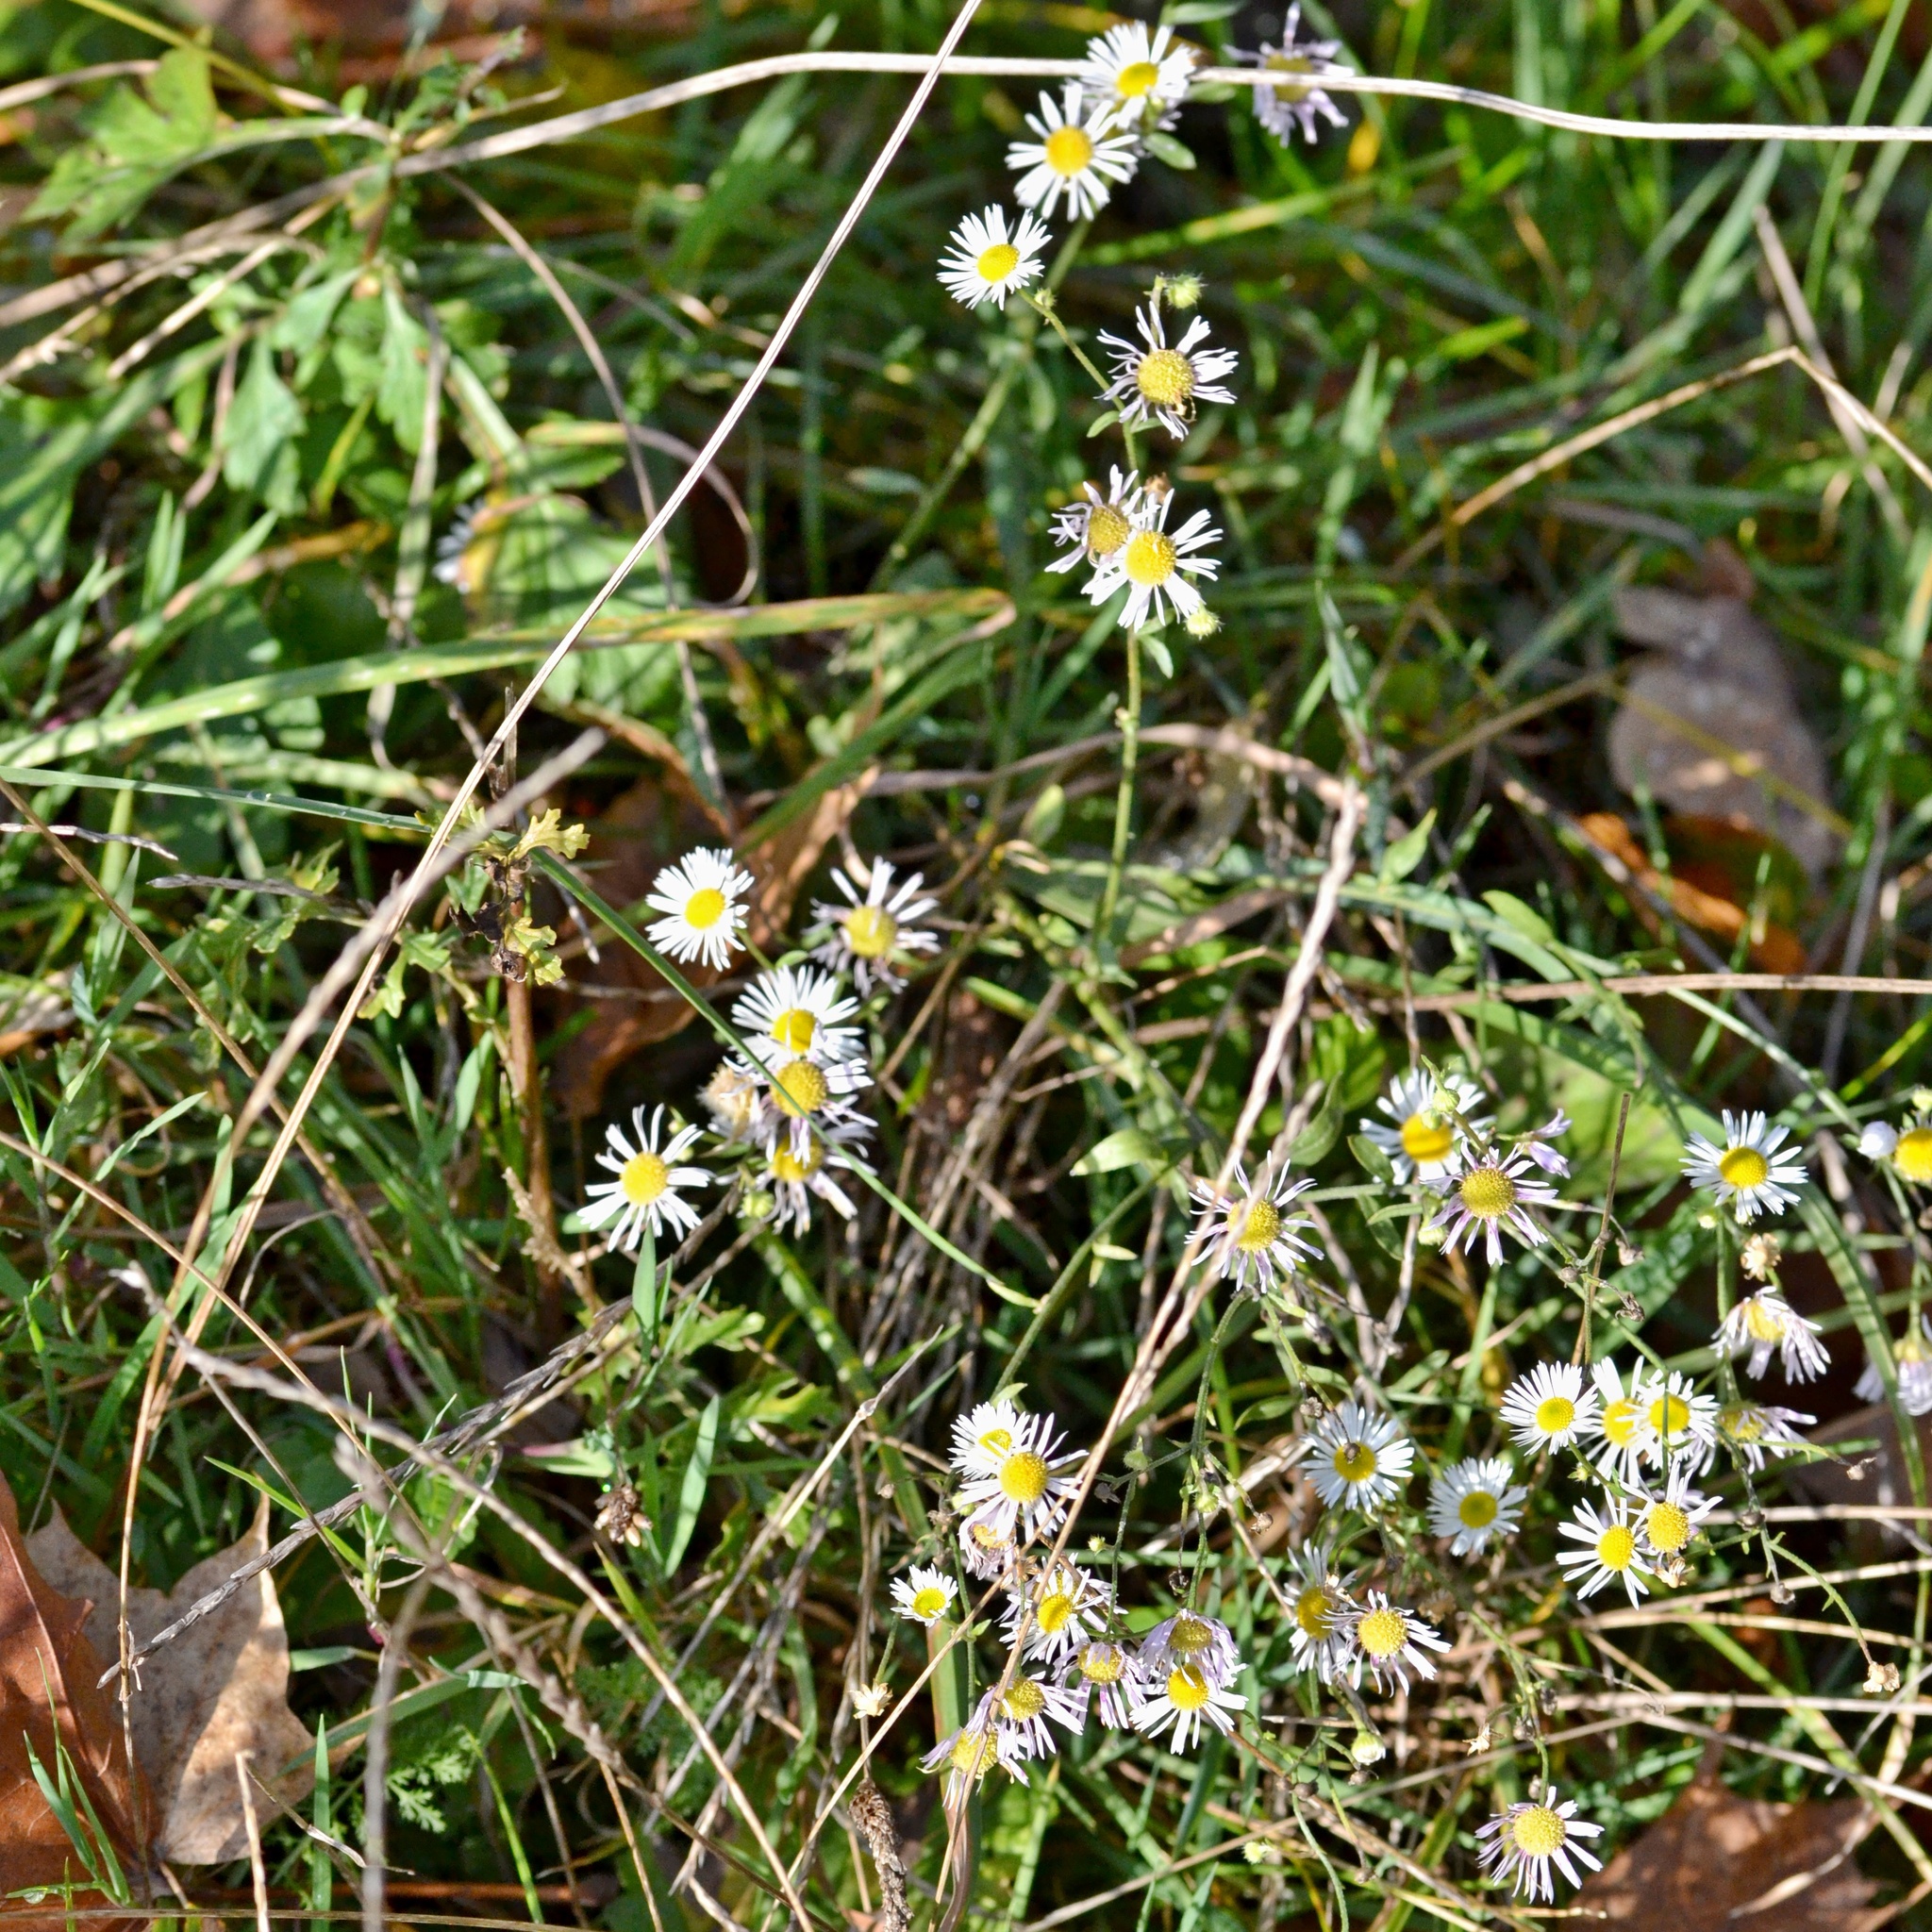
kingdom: Plantae
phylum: Tracheophyta
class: Magnoliopsida
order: Asterales
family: Asteraceae
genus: Erigeron
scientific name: Erigeron annuus
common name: Tall fleabane
